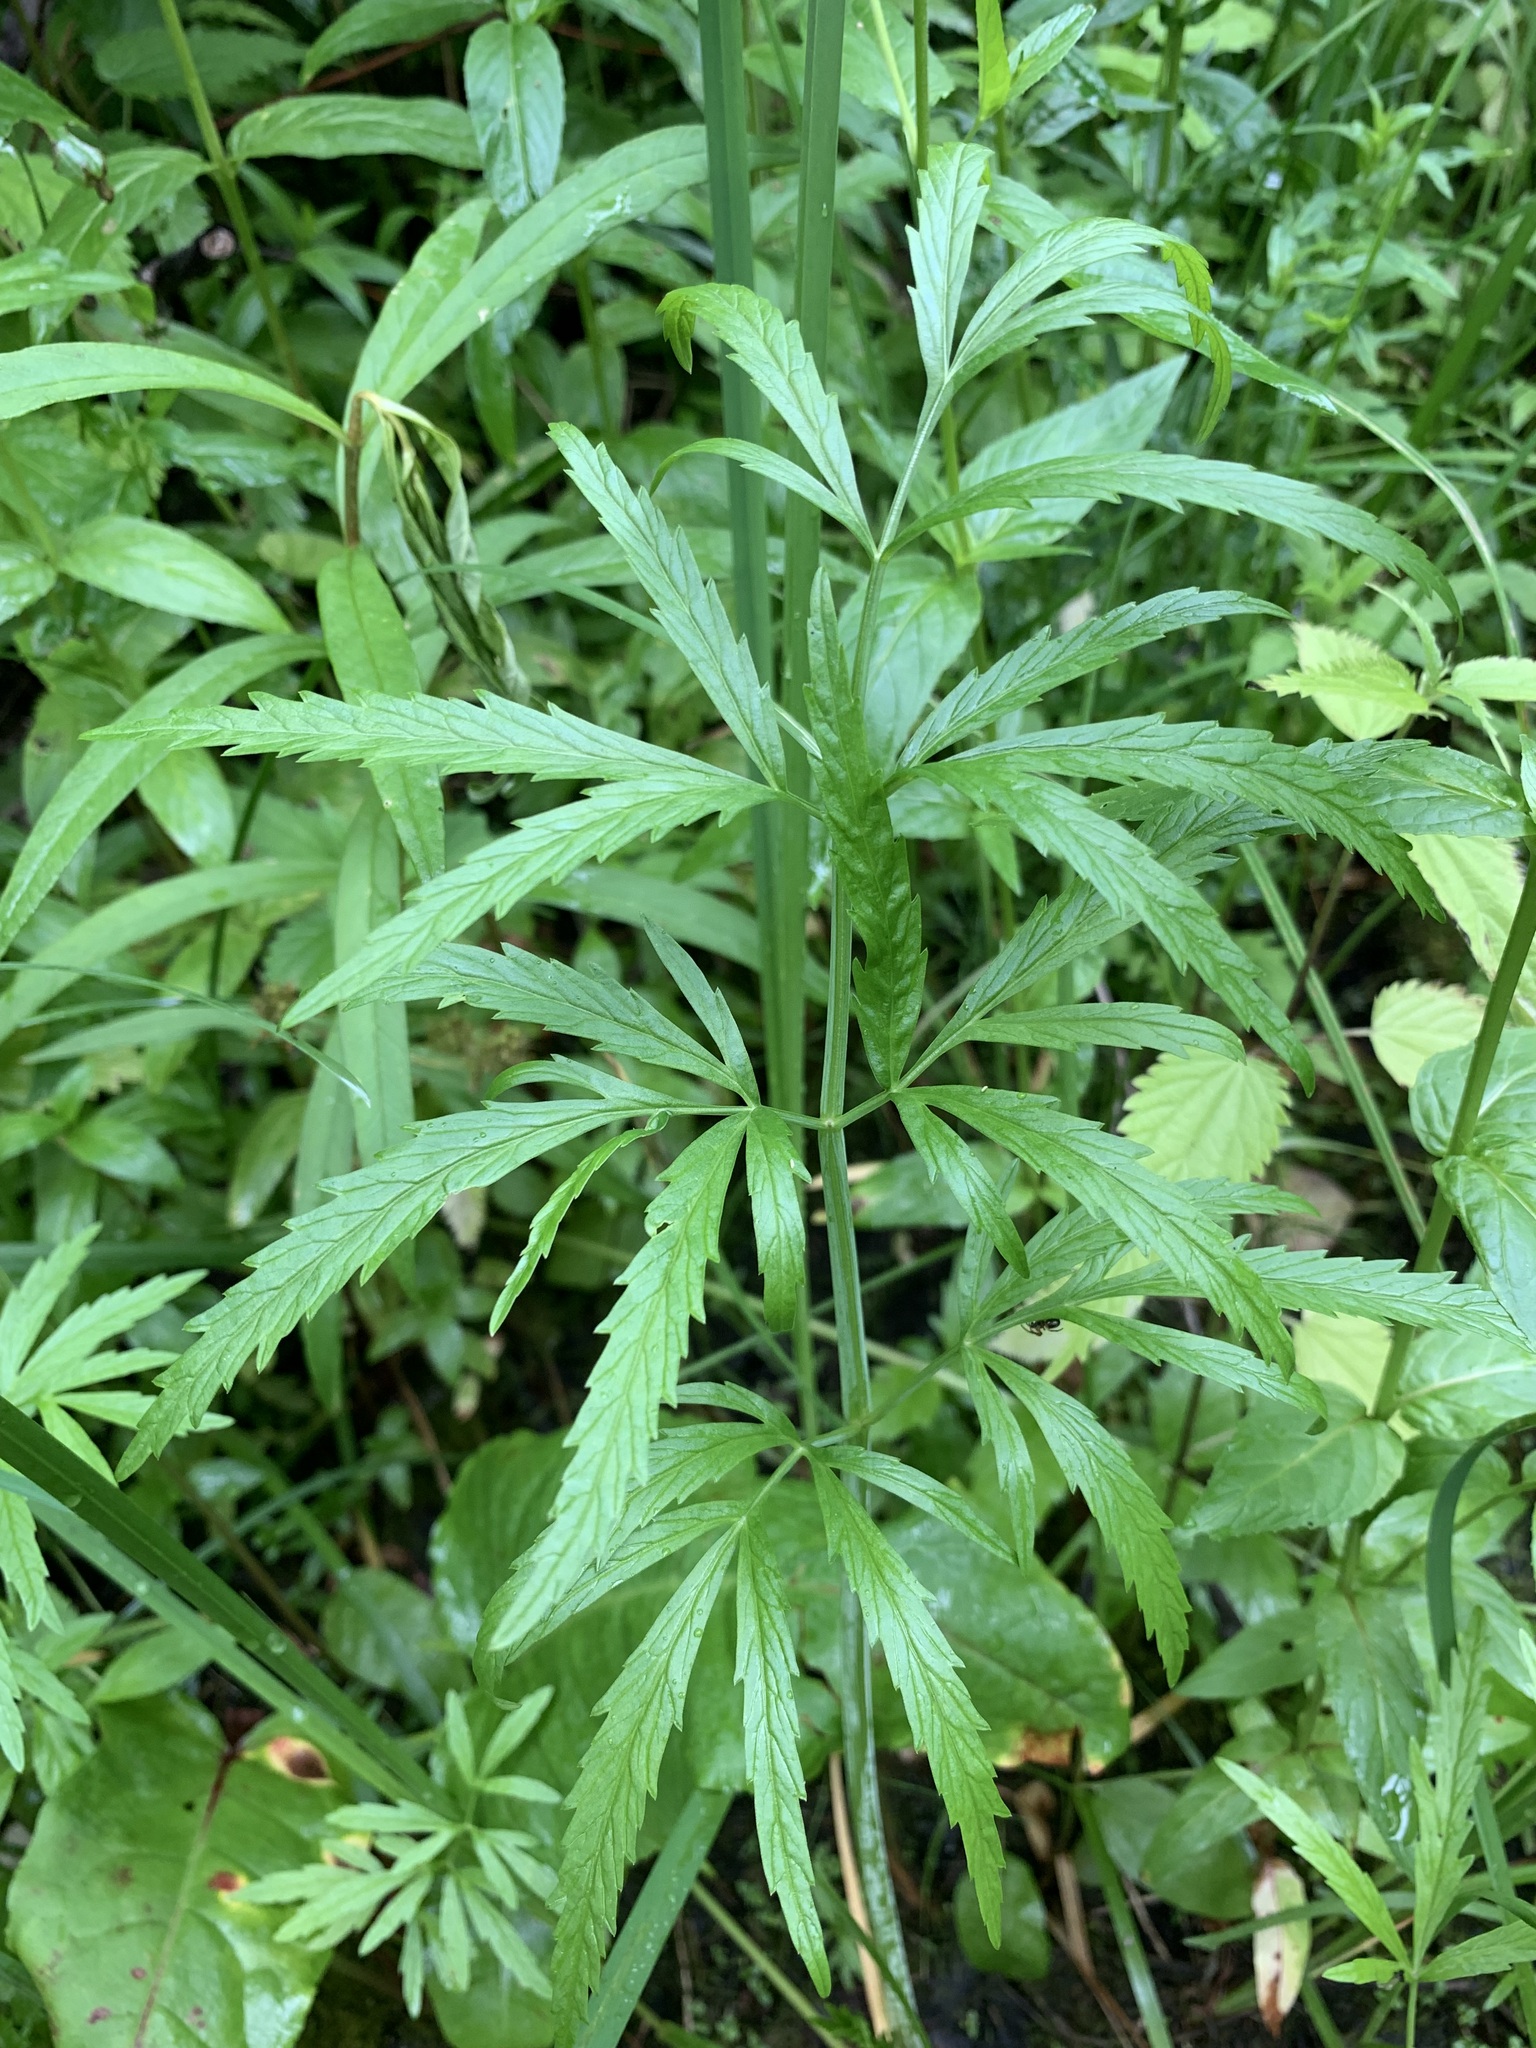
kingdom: Plantae
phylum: Tracheophyta
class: Magnoliopsida
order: Apiales
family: Apiaceae
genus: Cicuta
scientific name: Cicuta virosa
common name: Cowbane
